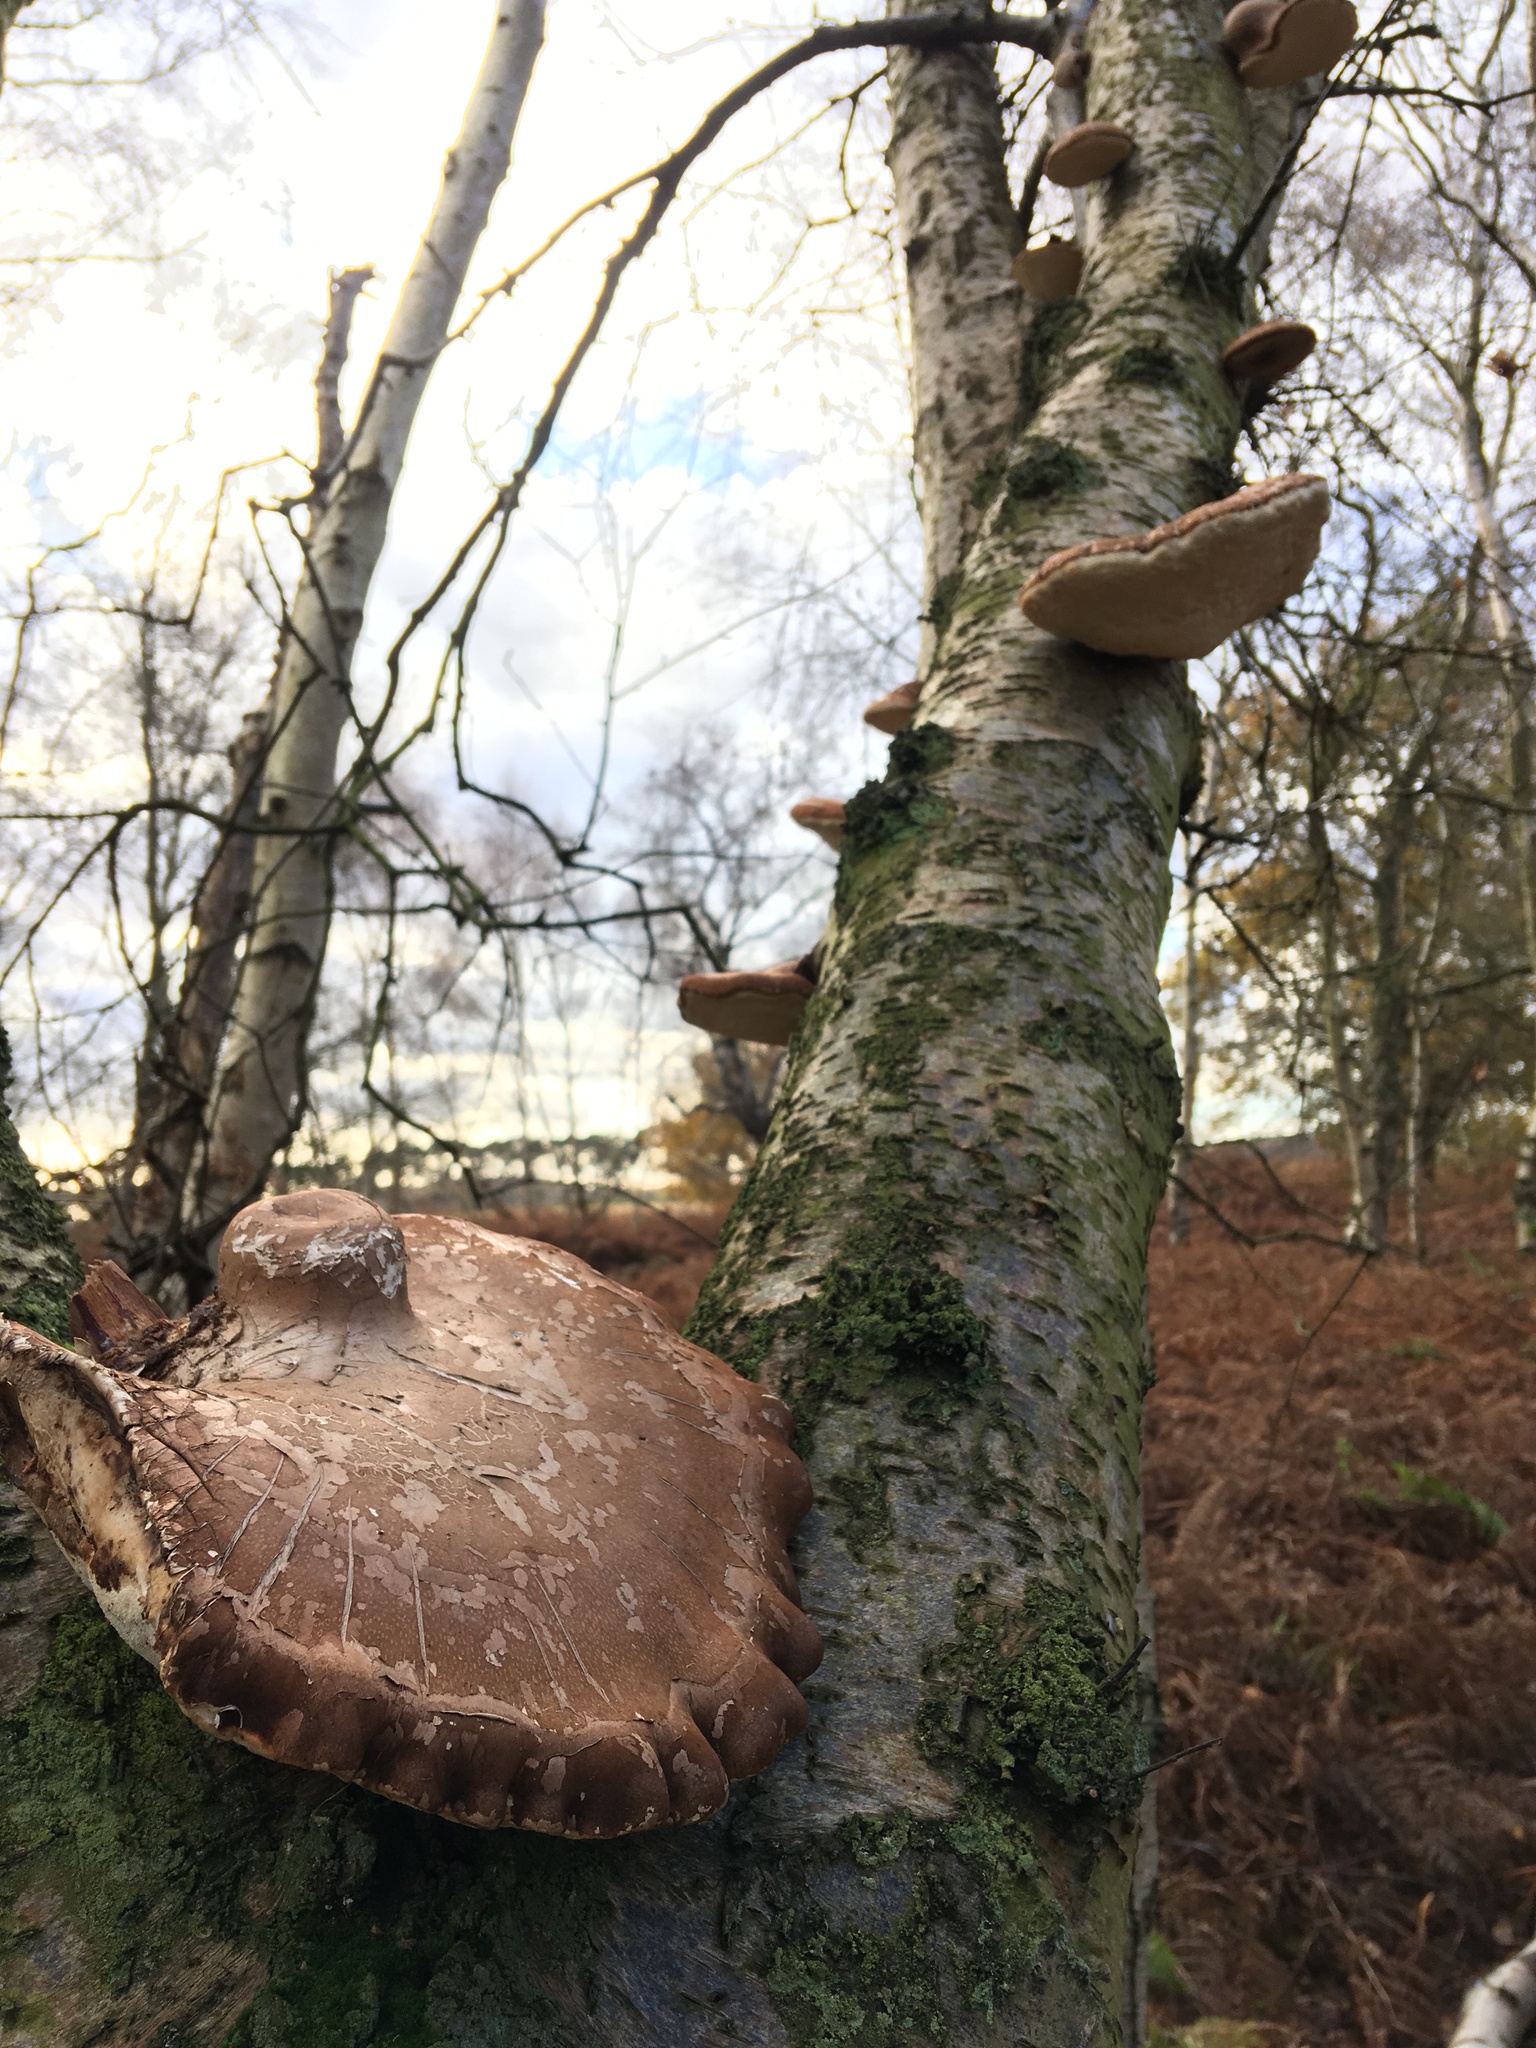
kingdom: Fungi
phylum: Basidiomycota
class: Agaricomycetes
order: Polyporales
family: Fomitopsidaceae
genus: Fomitopsis
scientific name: Fomitopsis betulina
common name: Birch polypore
